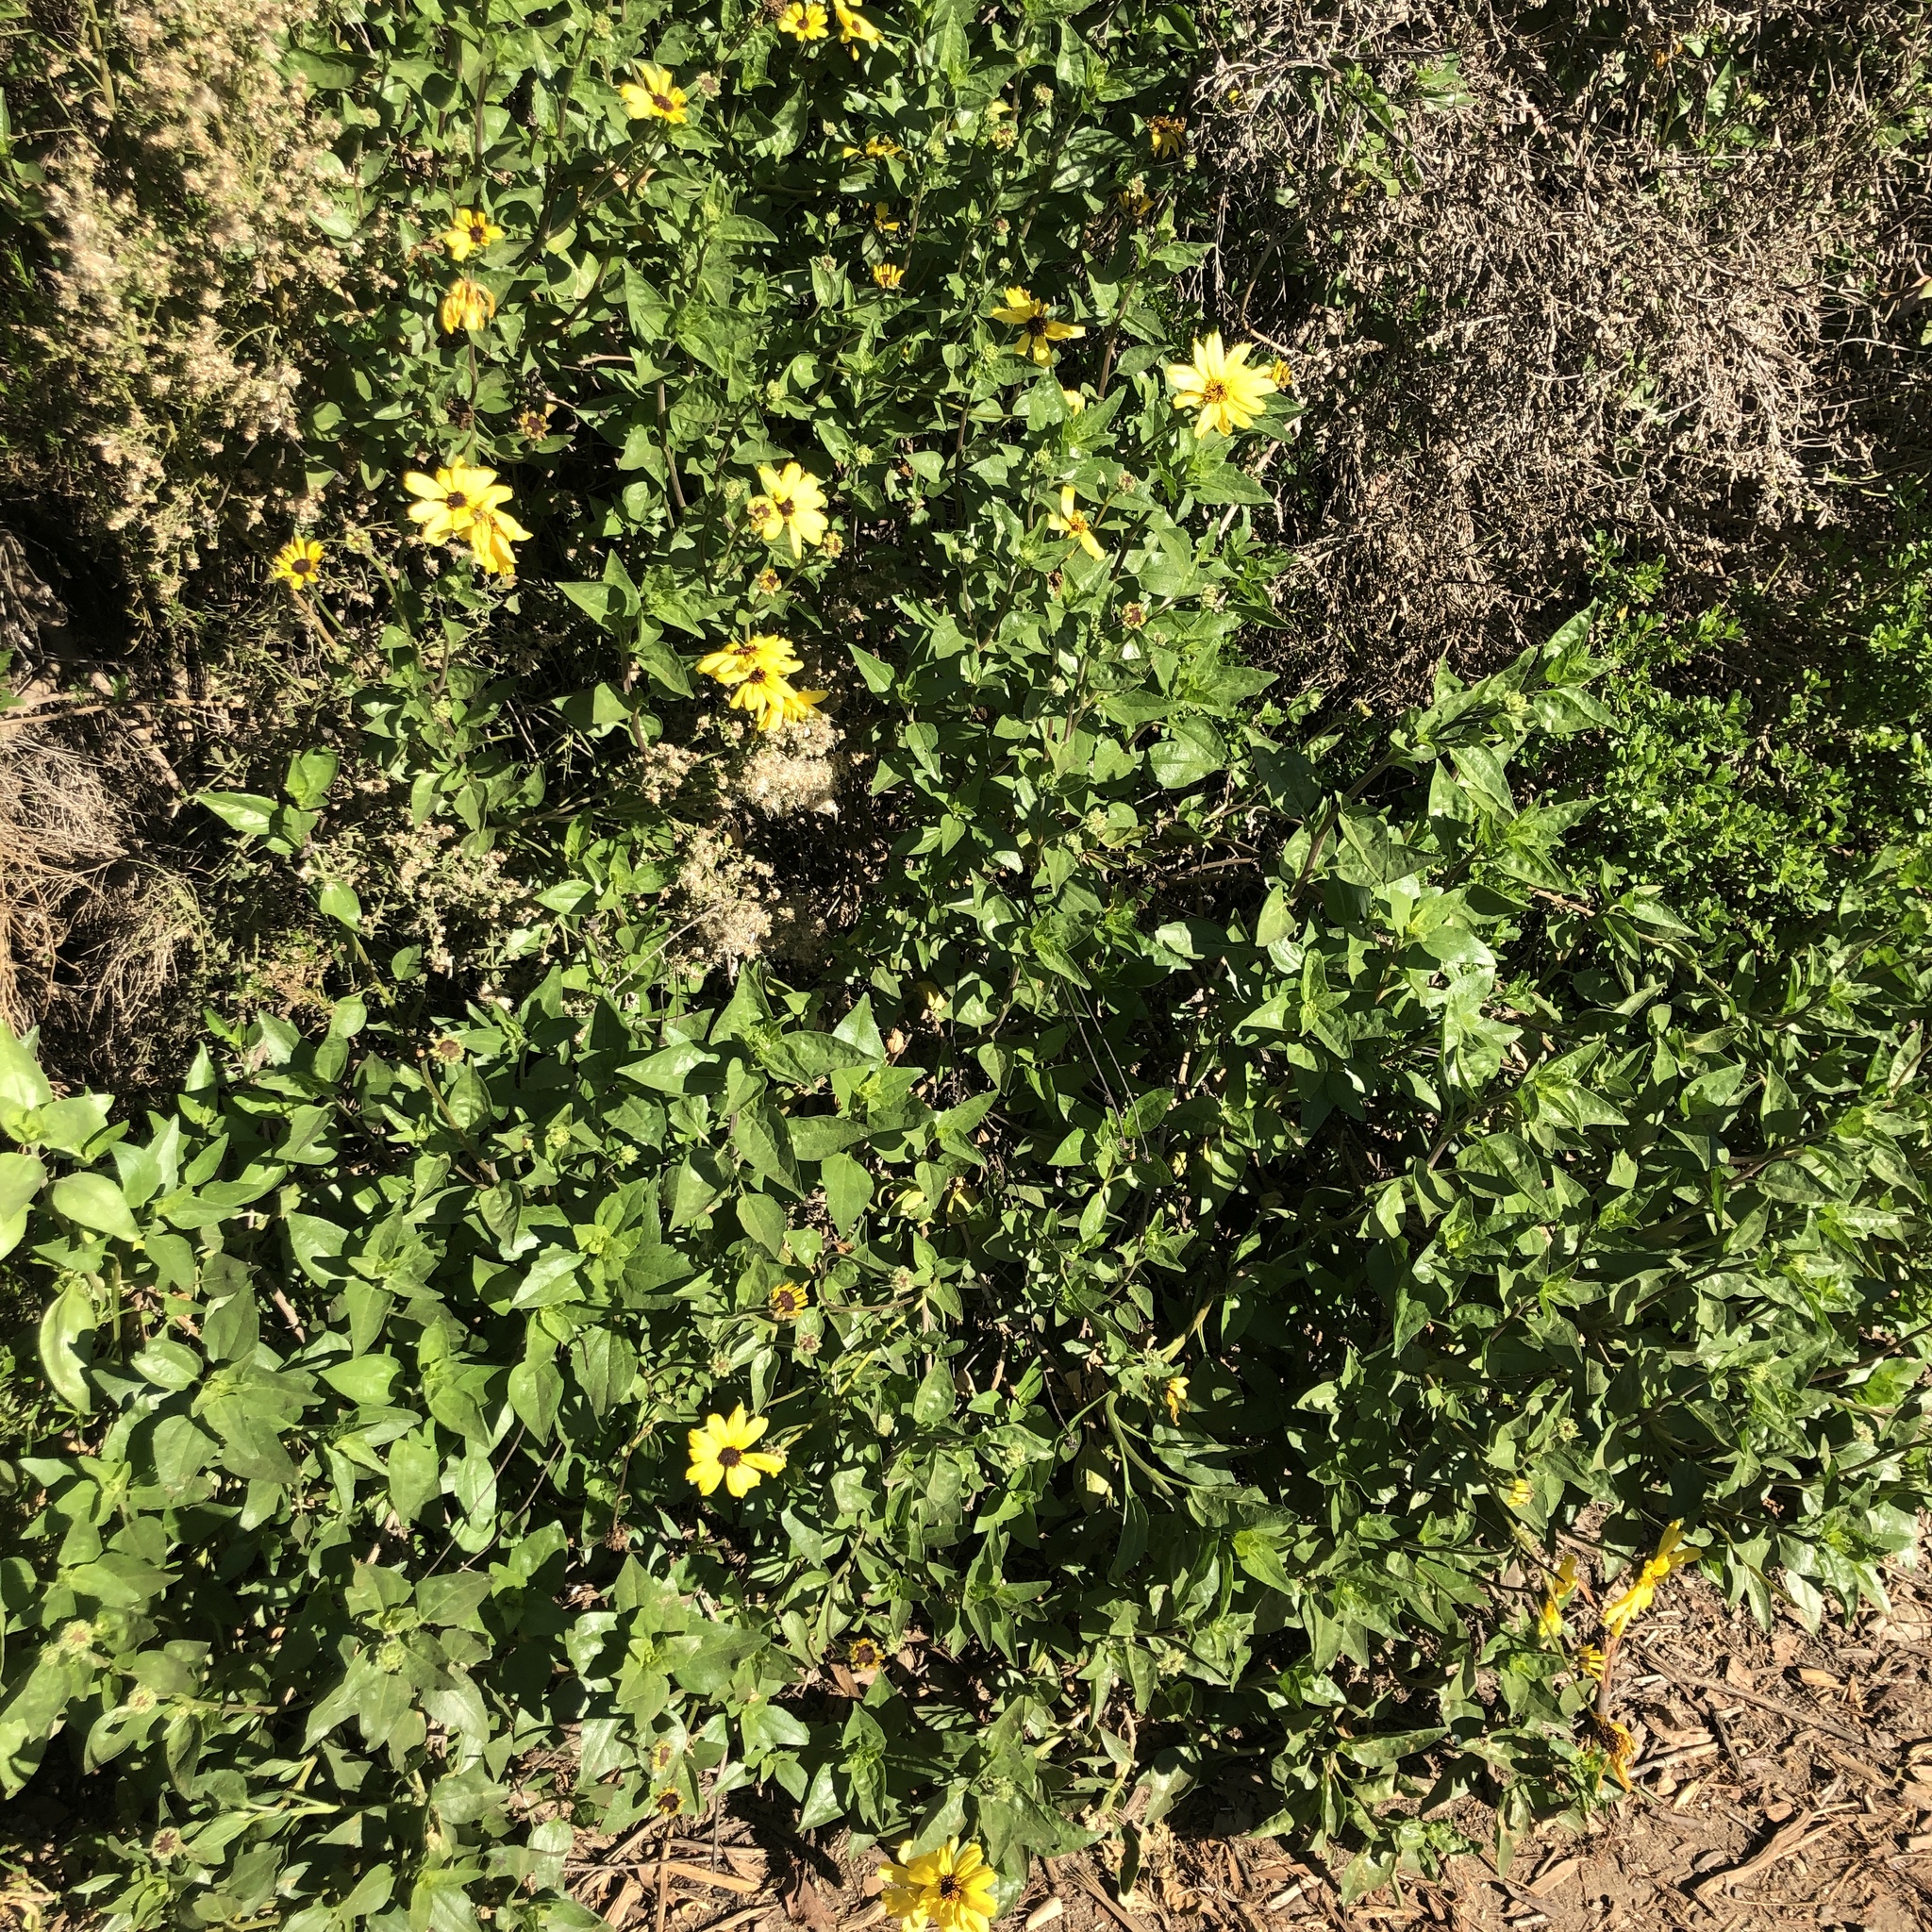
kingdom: Plantae
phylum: Tracheophyta
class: Magnoliopsida
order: Asterales
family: Asteraceae
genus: Encelia
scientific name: Encelia californica
